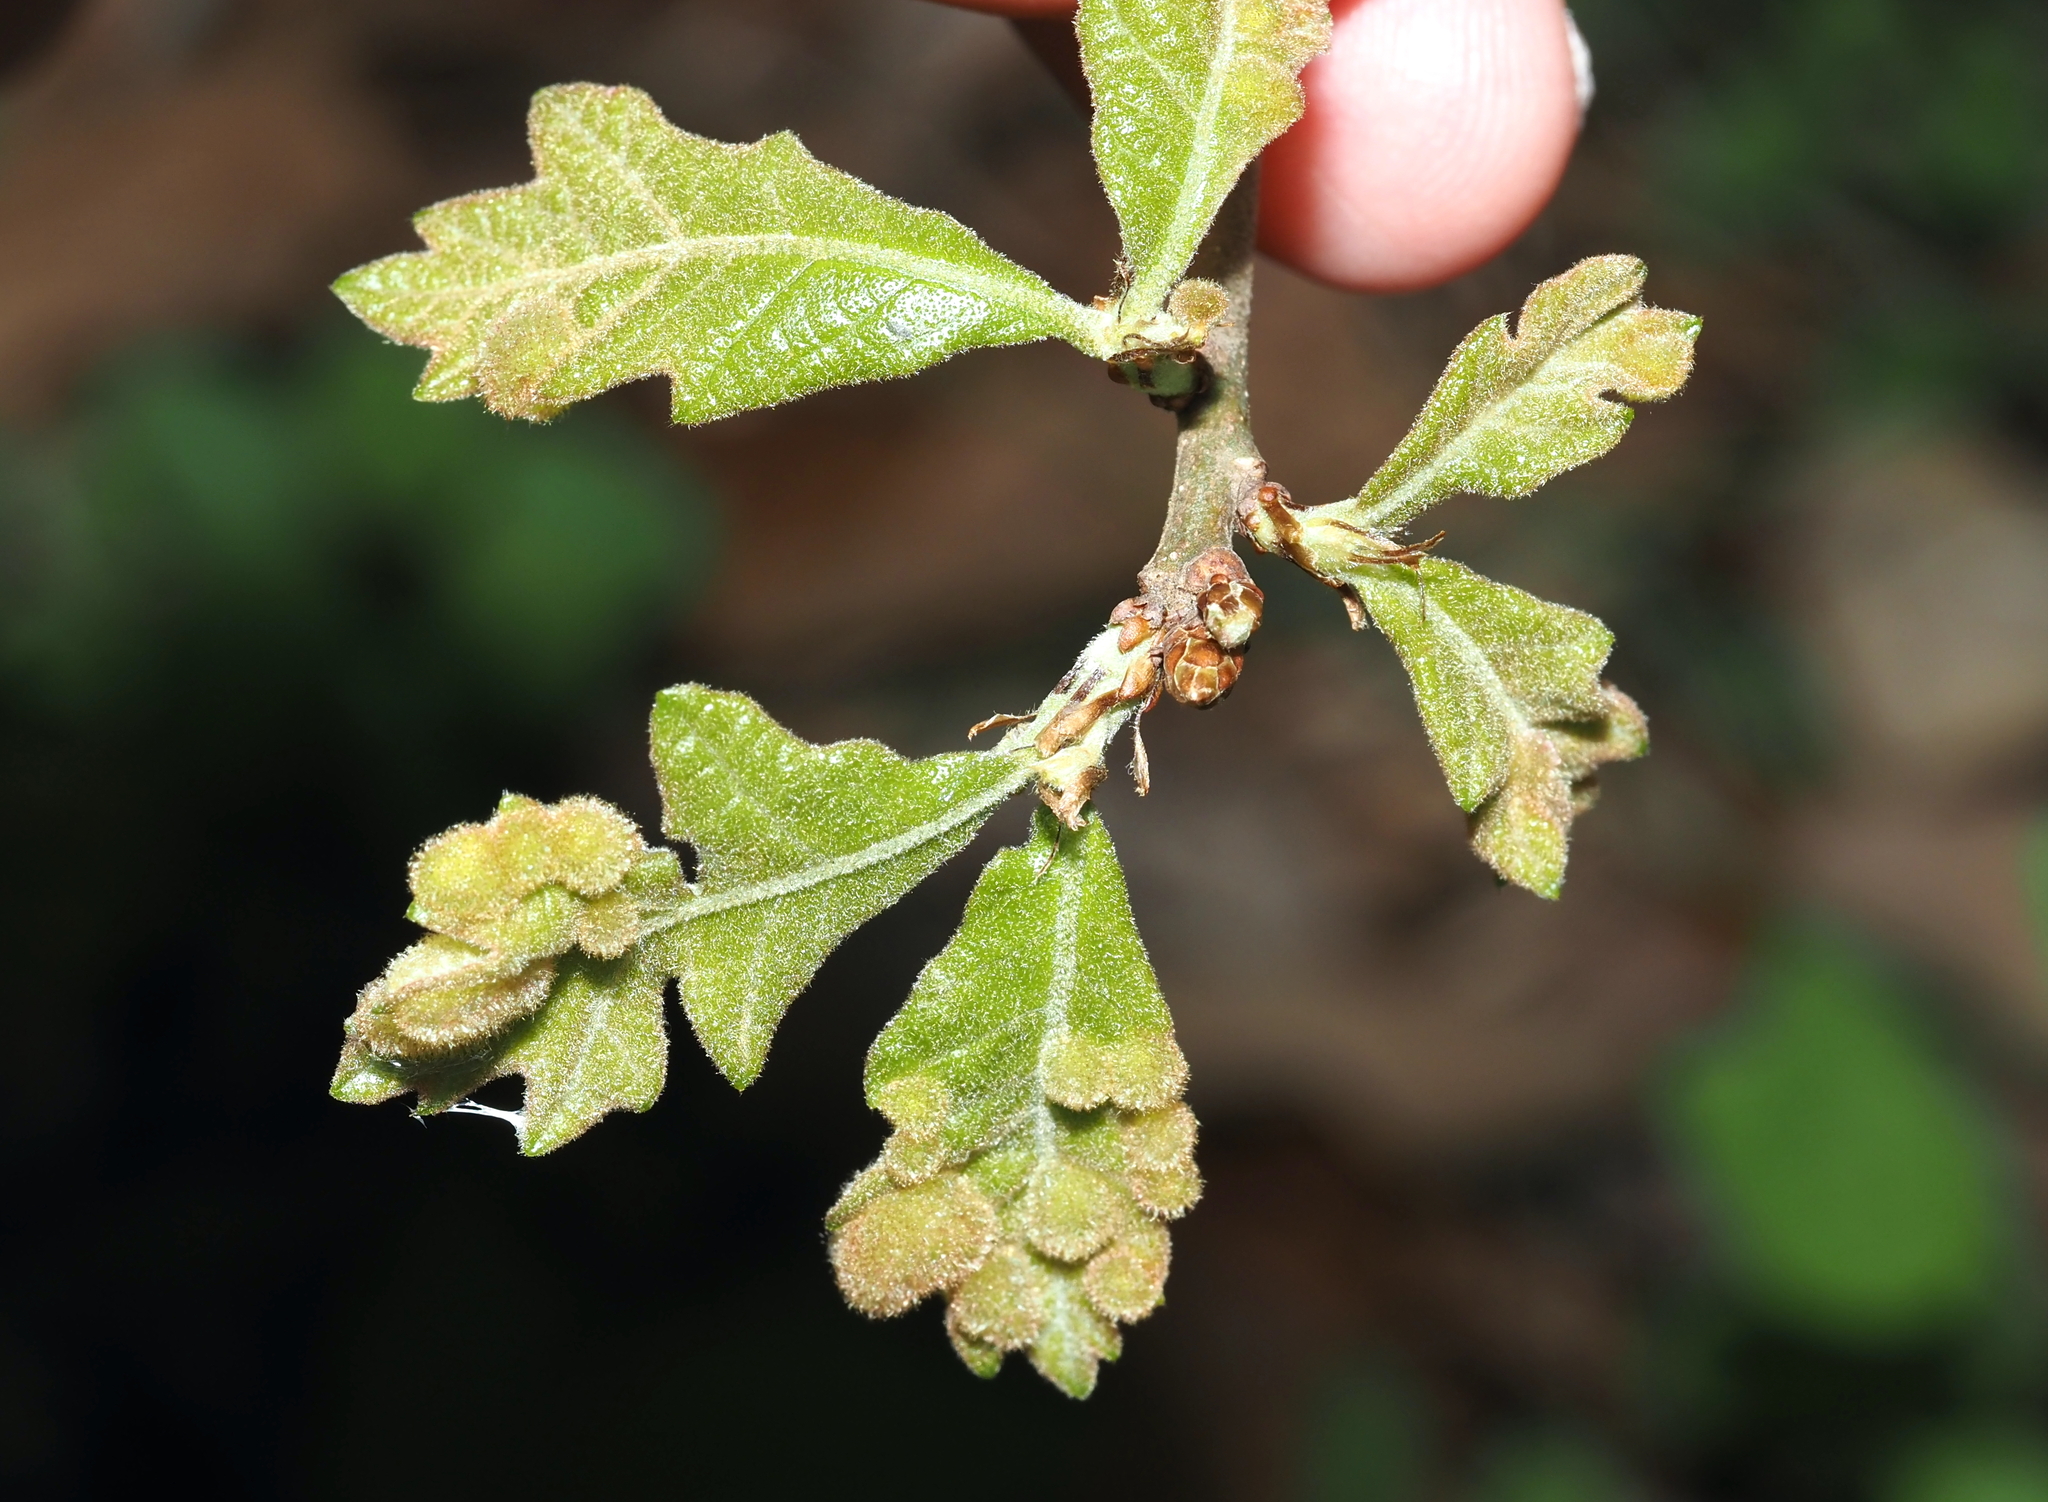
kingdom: Animalia
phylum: Arthropoda
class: Insecta
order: Hymenoptera
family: Cynipidae
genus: Neuroterus
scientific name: Neuroterus quercusirregularis
